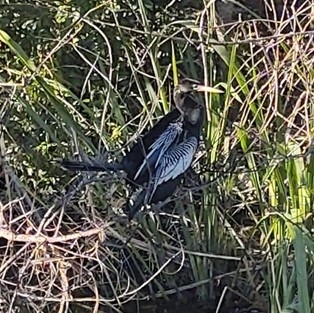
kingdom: Animalia
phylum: Chordata
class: Aves
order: Suliformes
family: Anhingidae
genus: Anhinga
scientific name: Anhinga anhinga
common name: Anhinga
